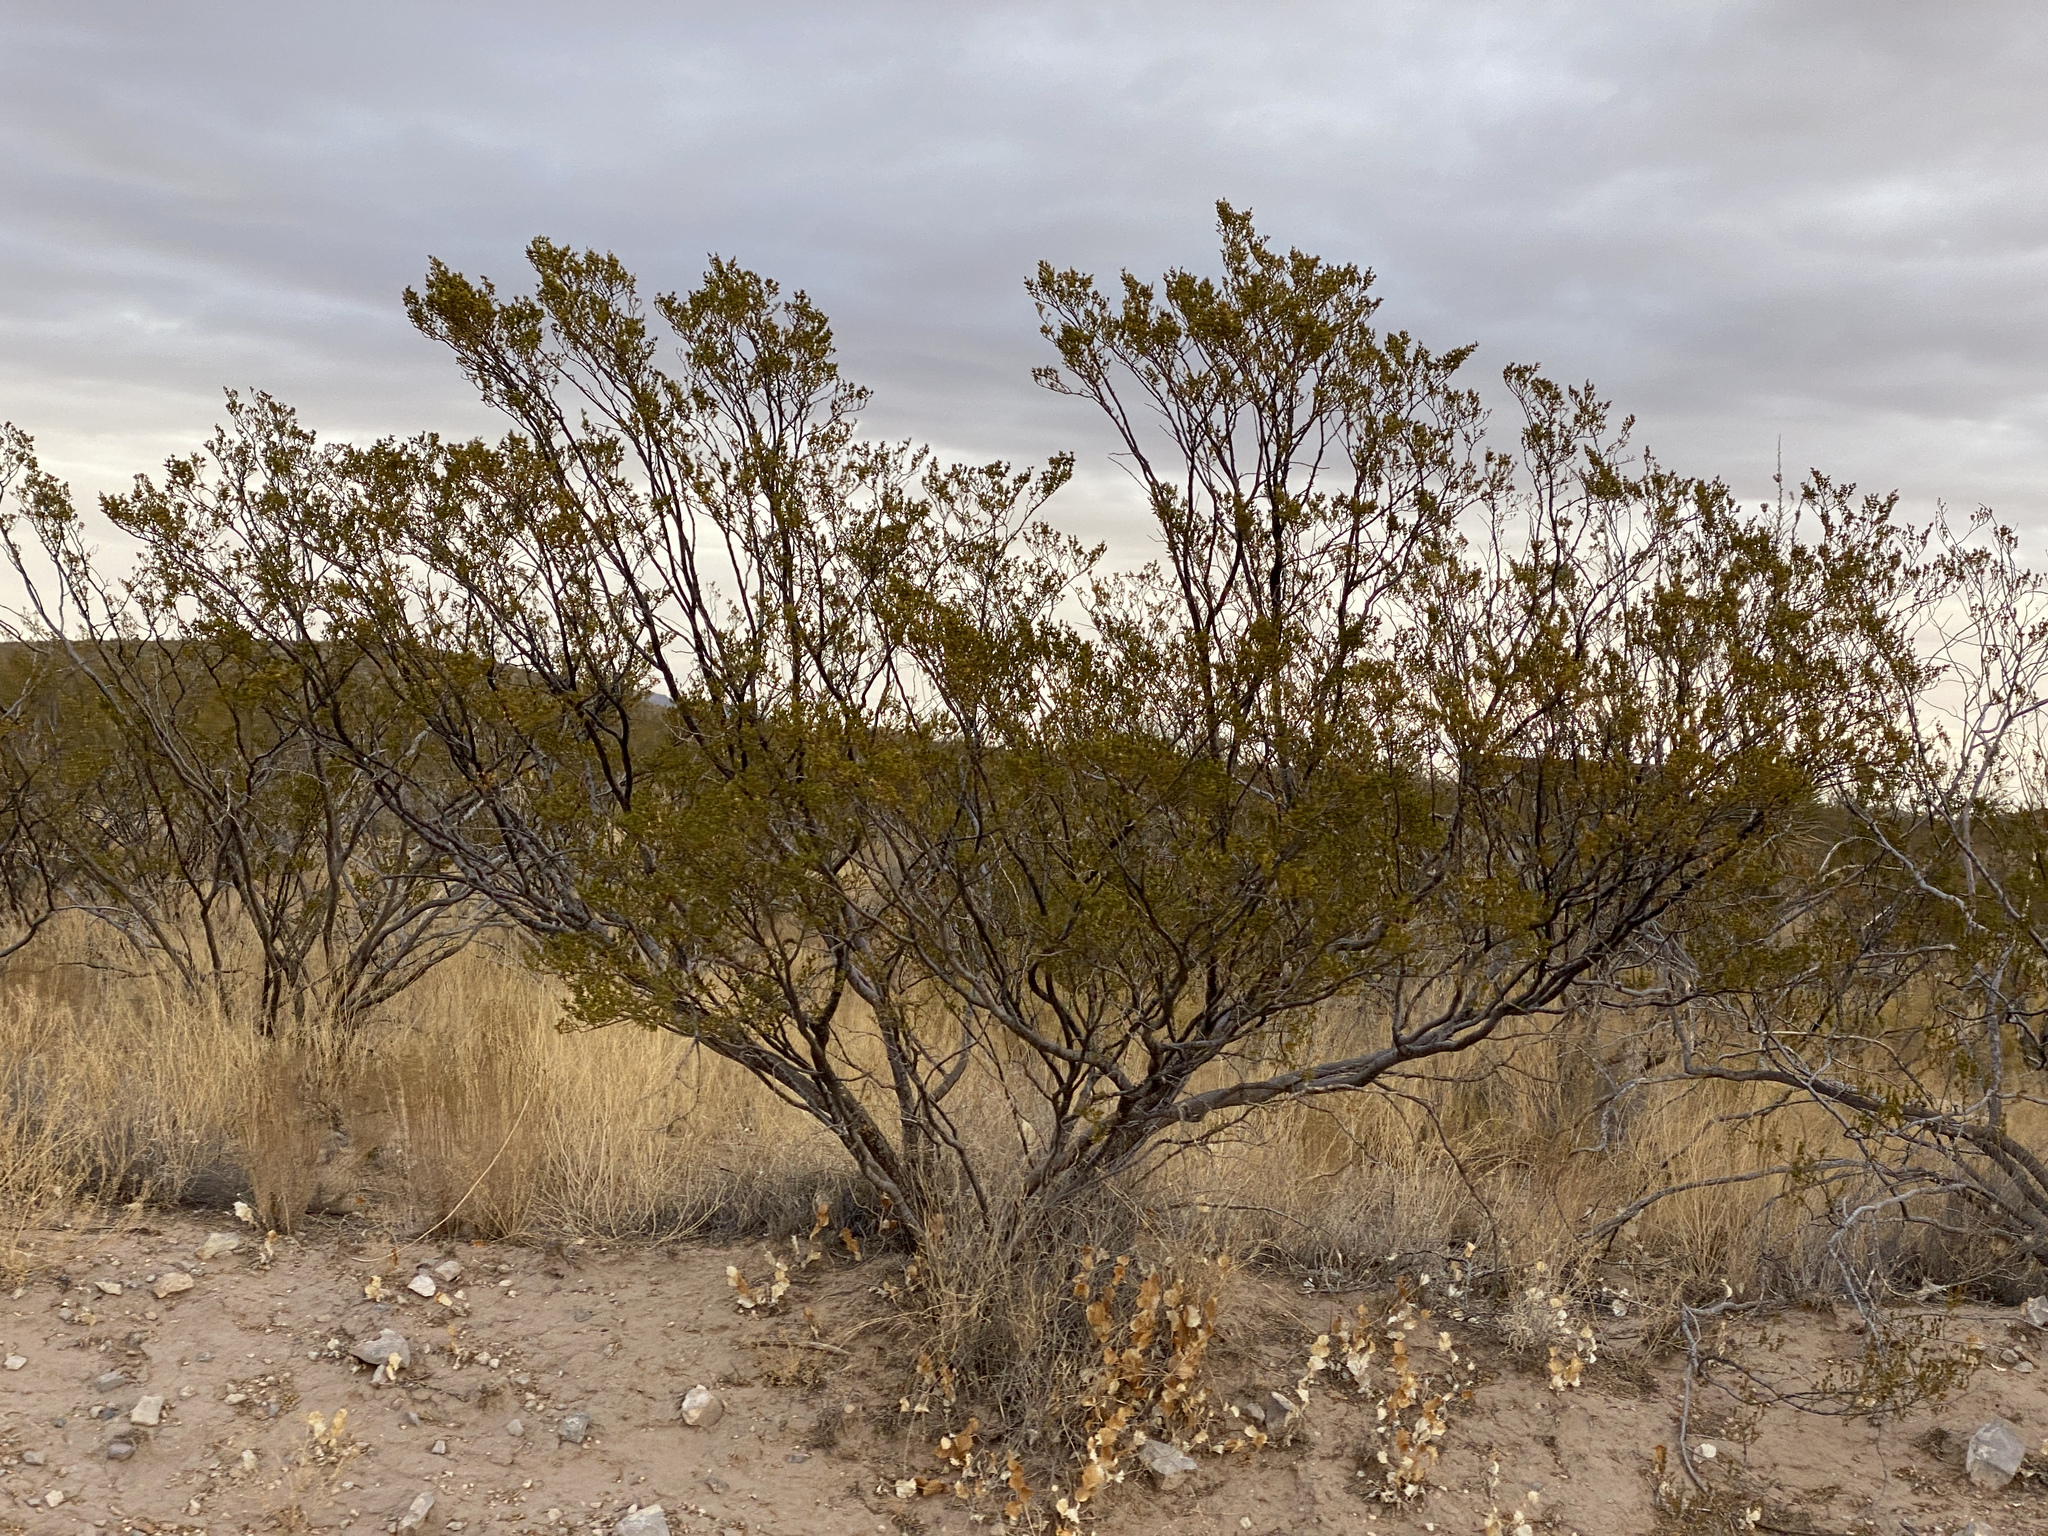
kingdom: Plantae
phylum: Tracheophyta
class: Magnoliopsida
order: Zygophyllales
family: Zygophyllaceae
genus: Larrea
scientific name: Larrea tridentata
